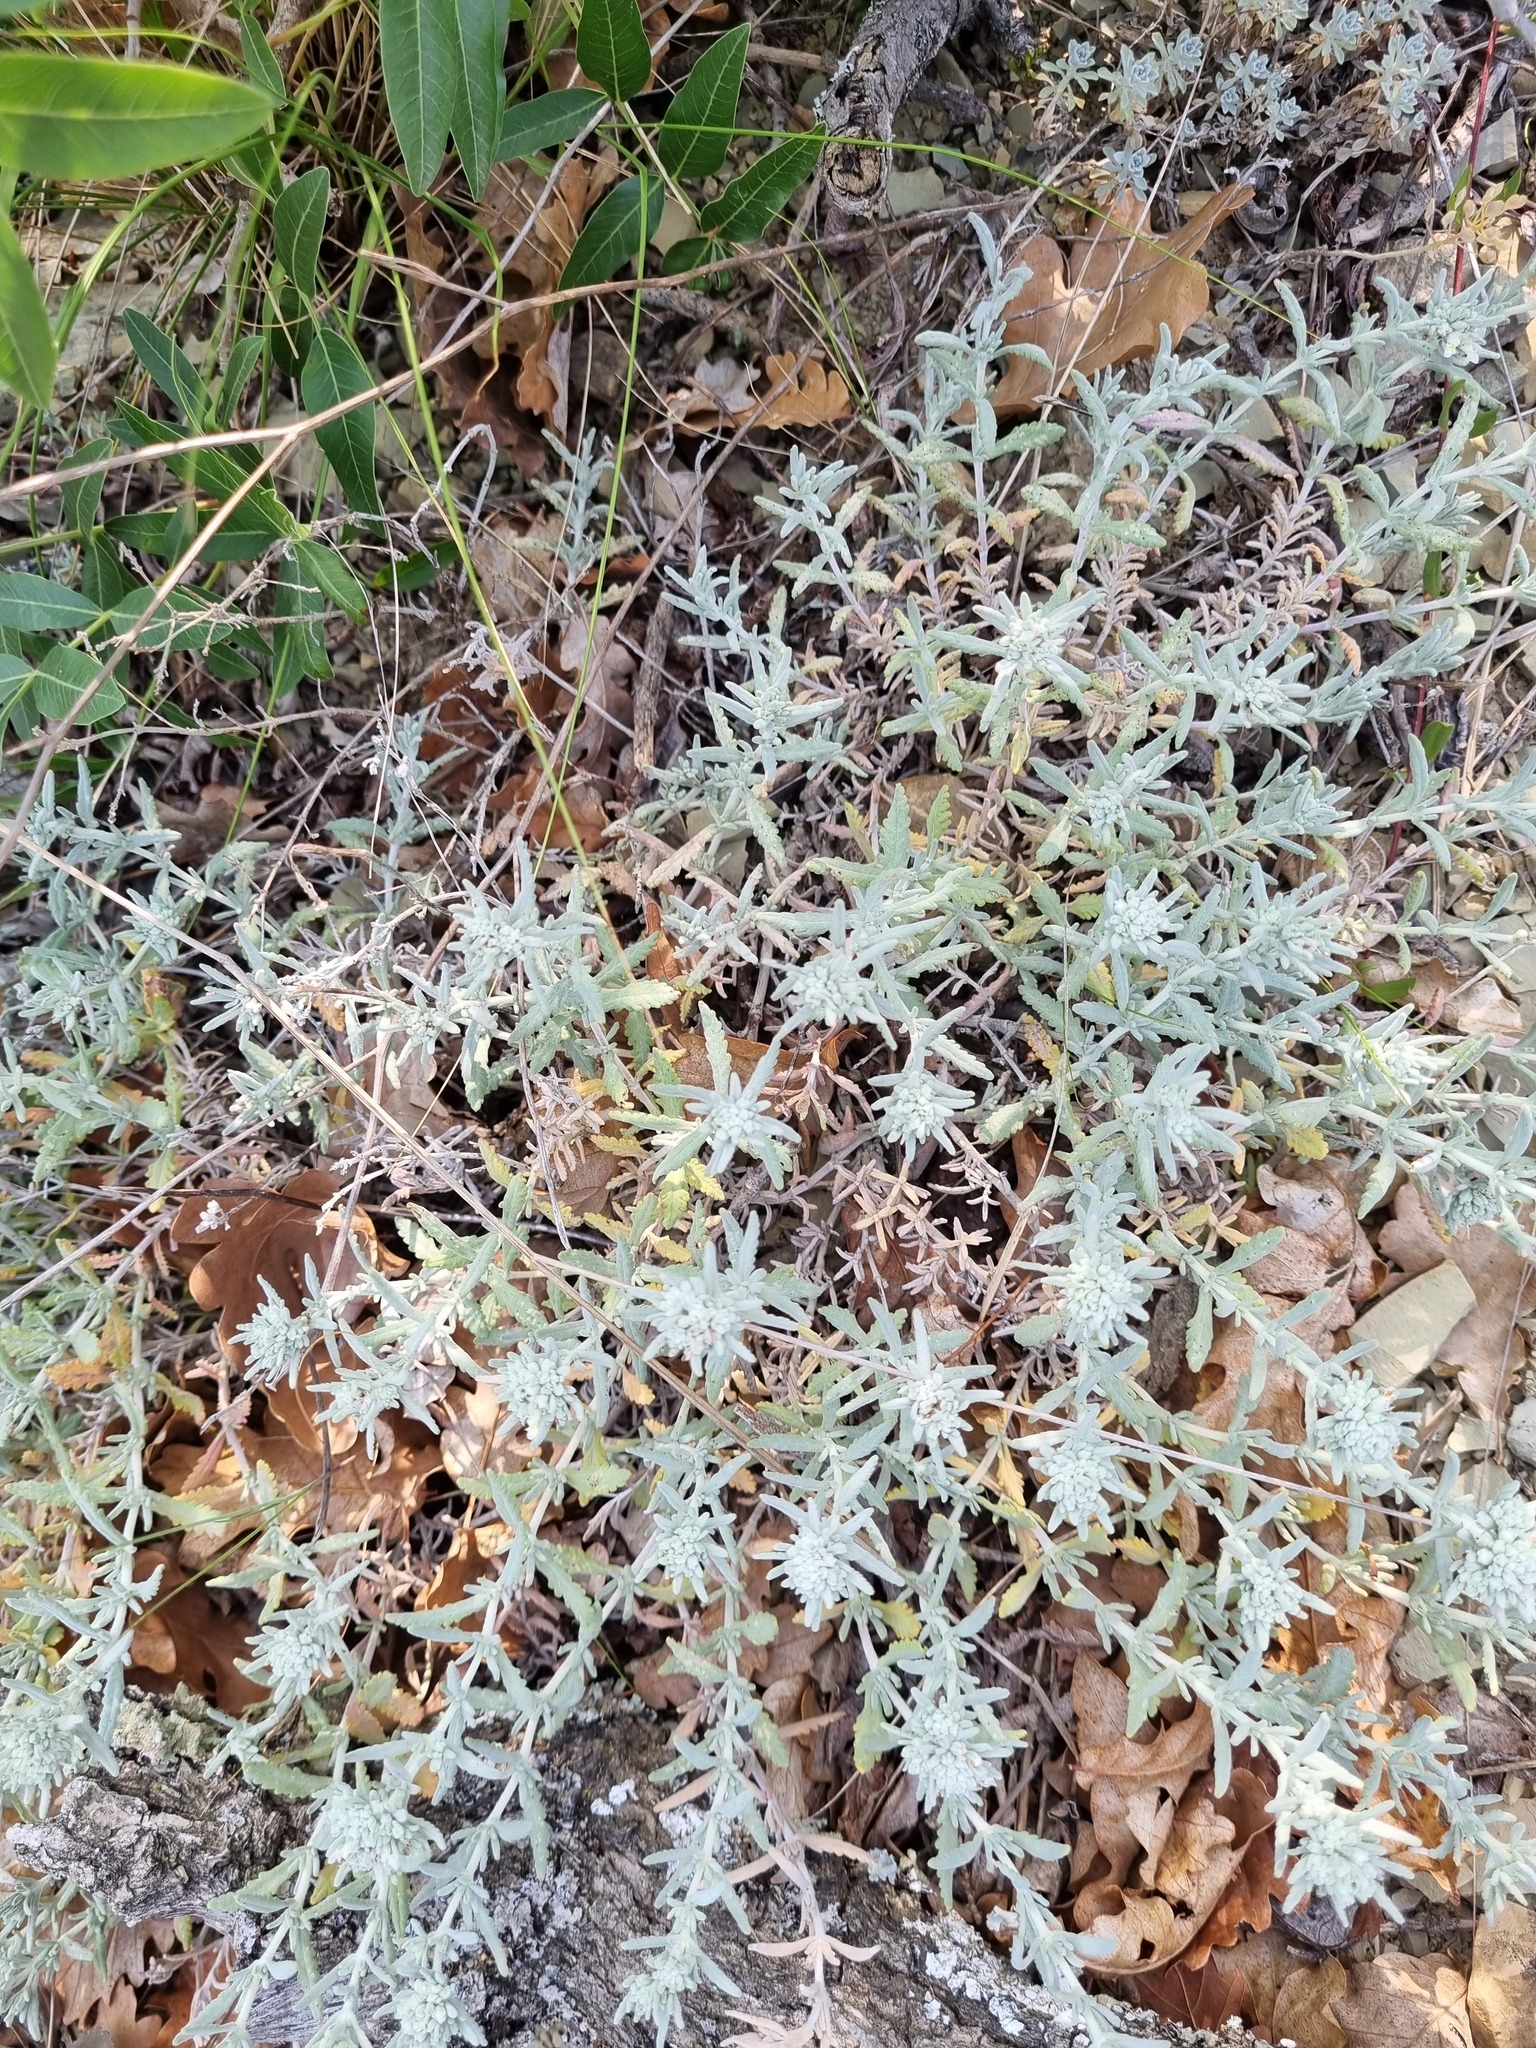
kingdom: Plantae
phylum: Tracheophyta
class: Magnoliopsida
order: Lamiales
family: Lamiaceae
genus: Teucrium
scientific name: Teucrium polium
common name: Poley
